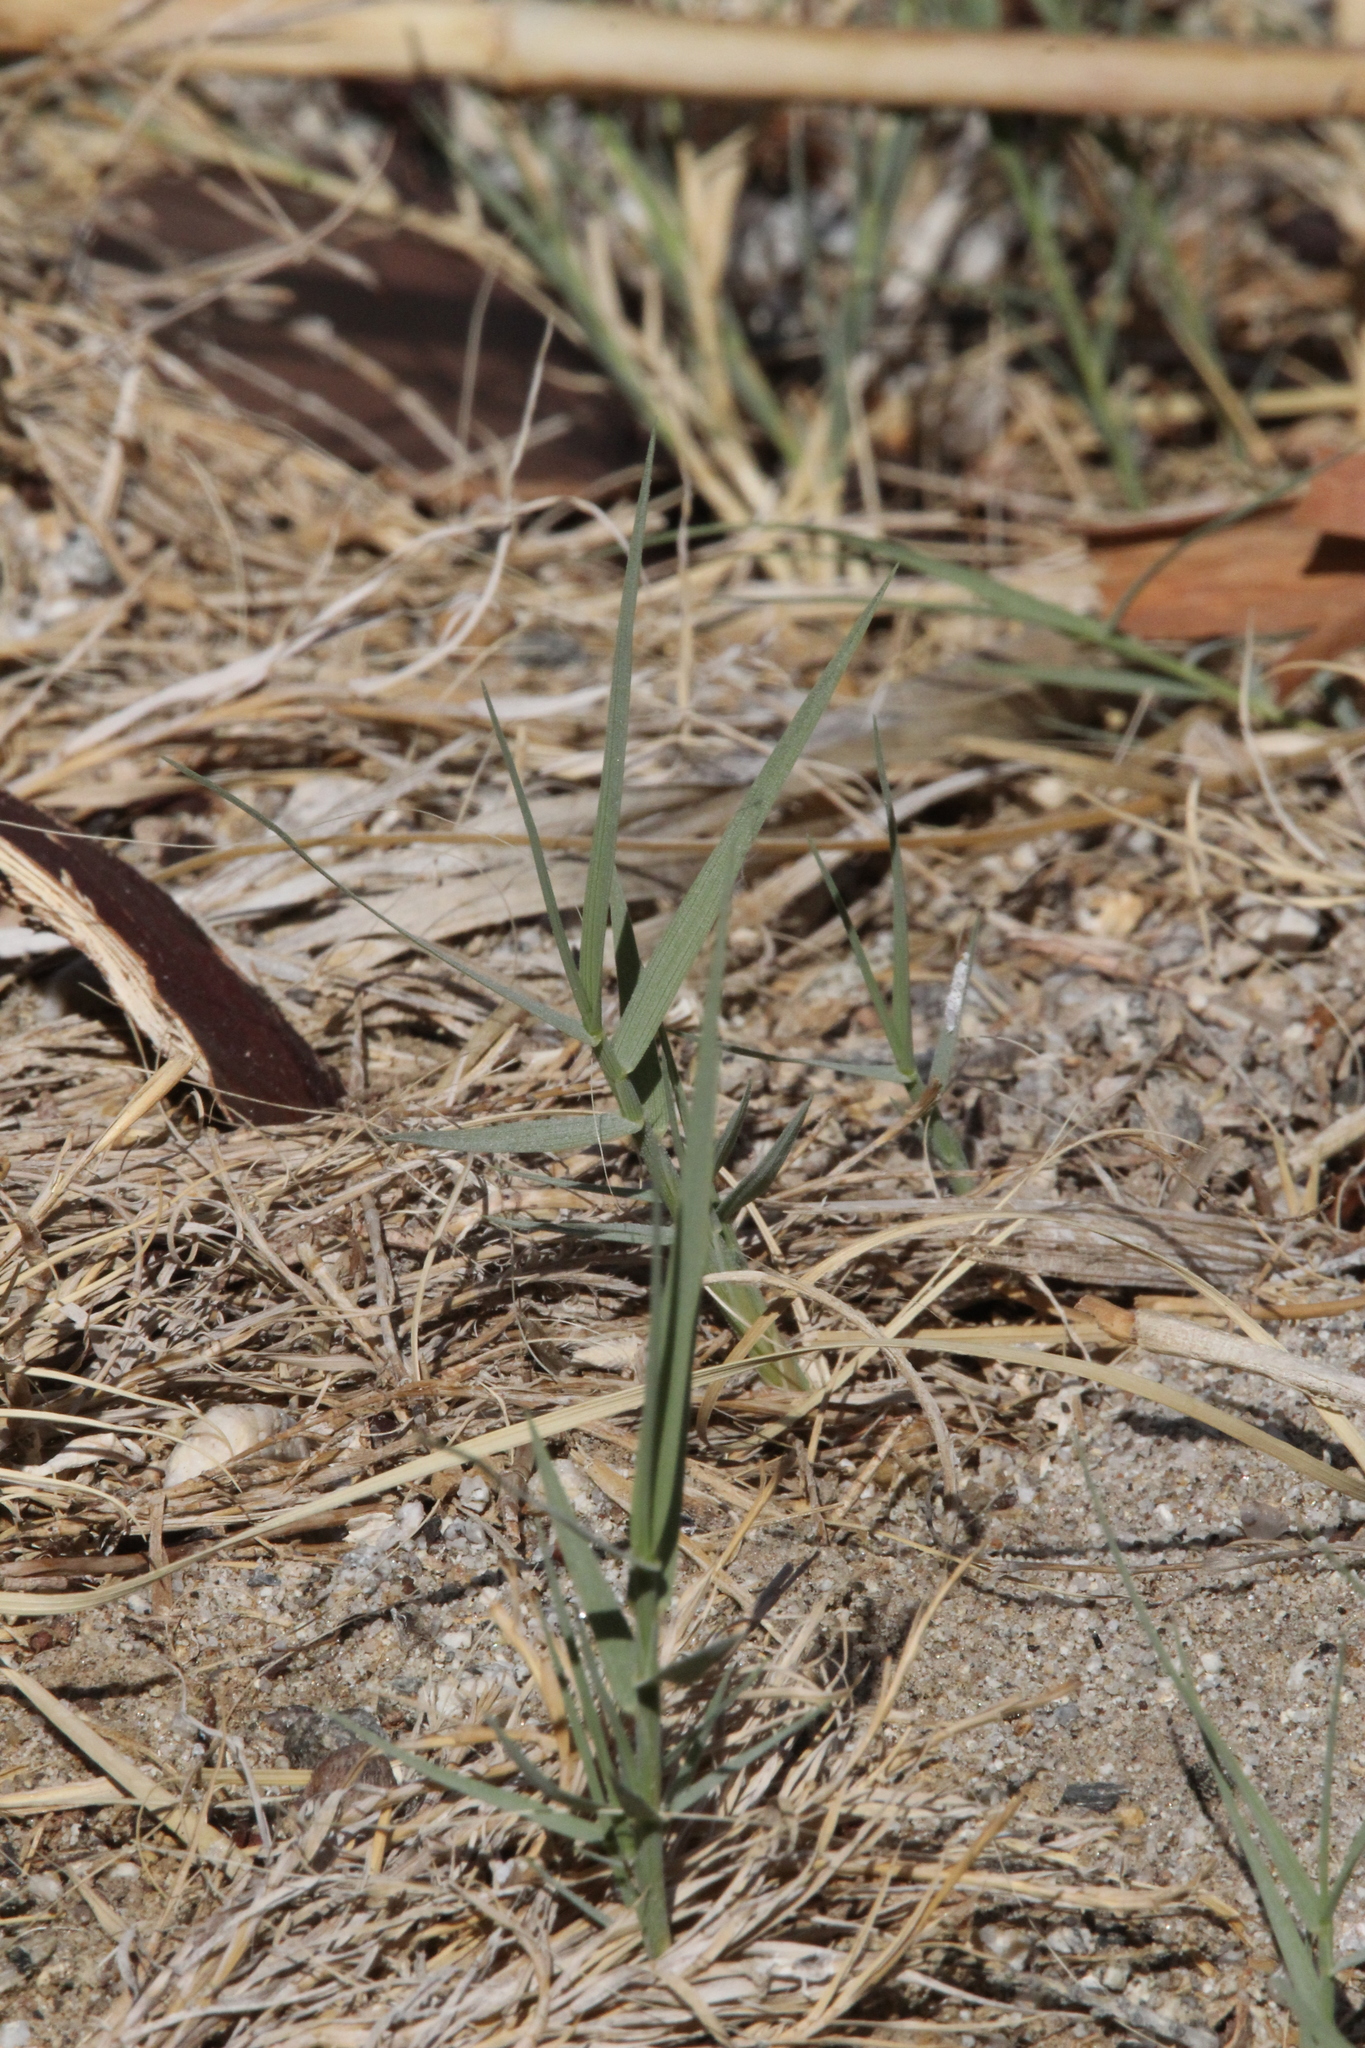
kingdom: Plantae
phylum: Tracheophyta
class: Liliopsida
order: Poales
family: Poaceae
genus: Distichlis
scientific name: Distichlis spicata
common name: Saltgrass
